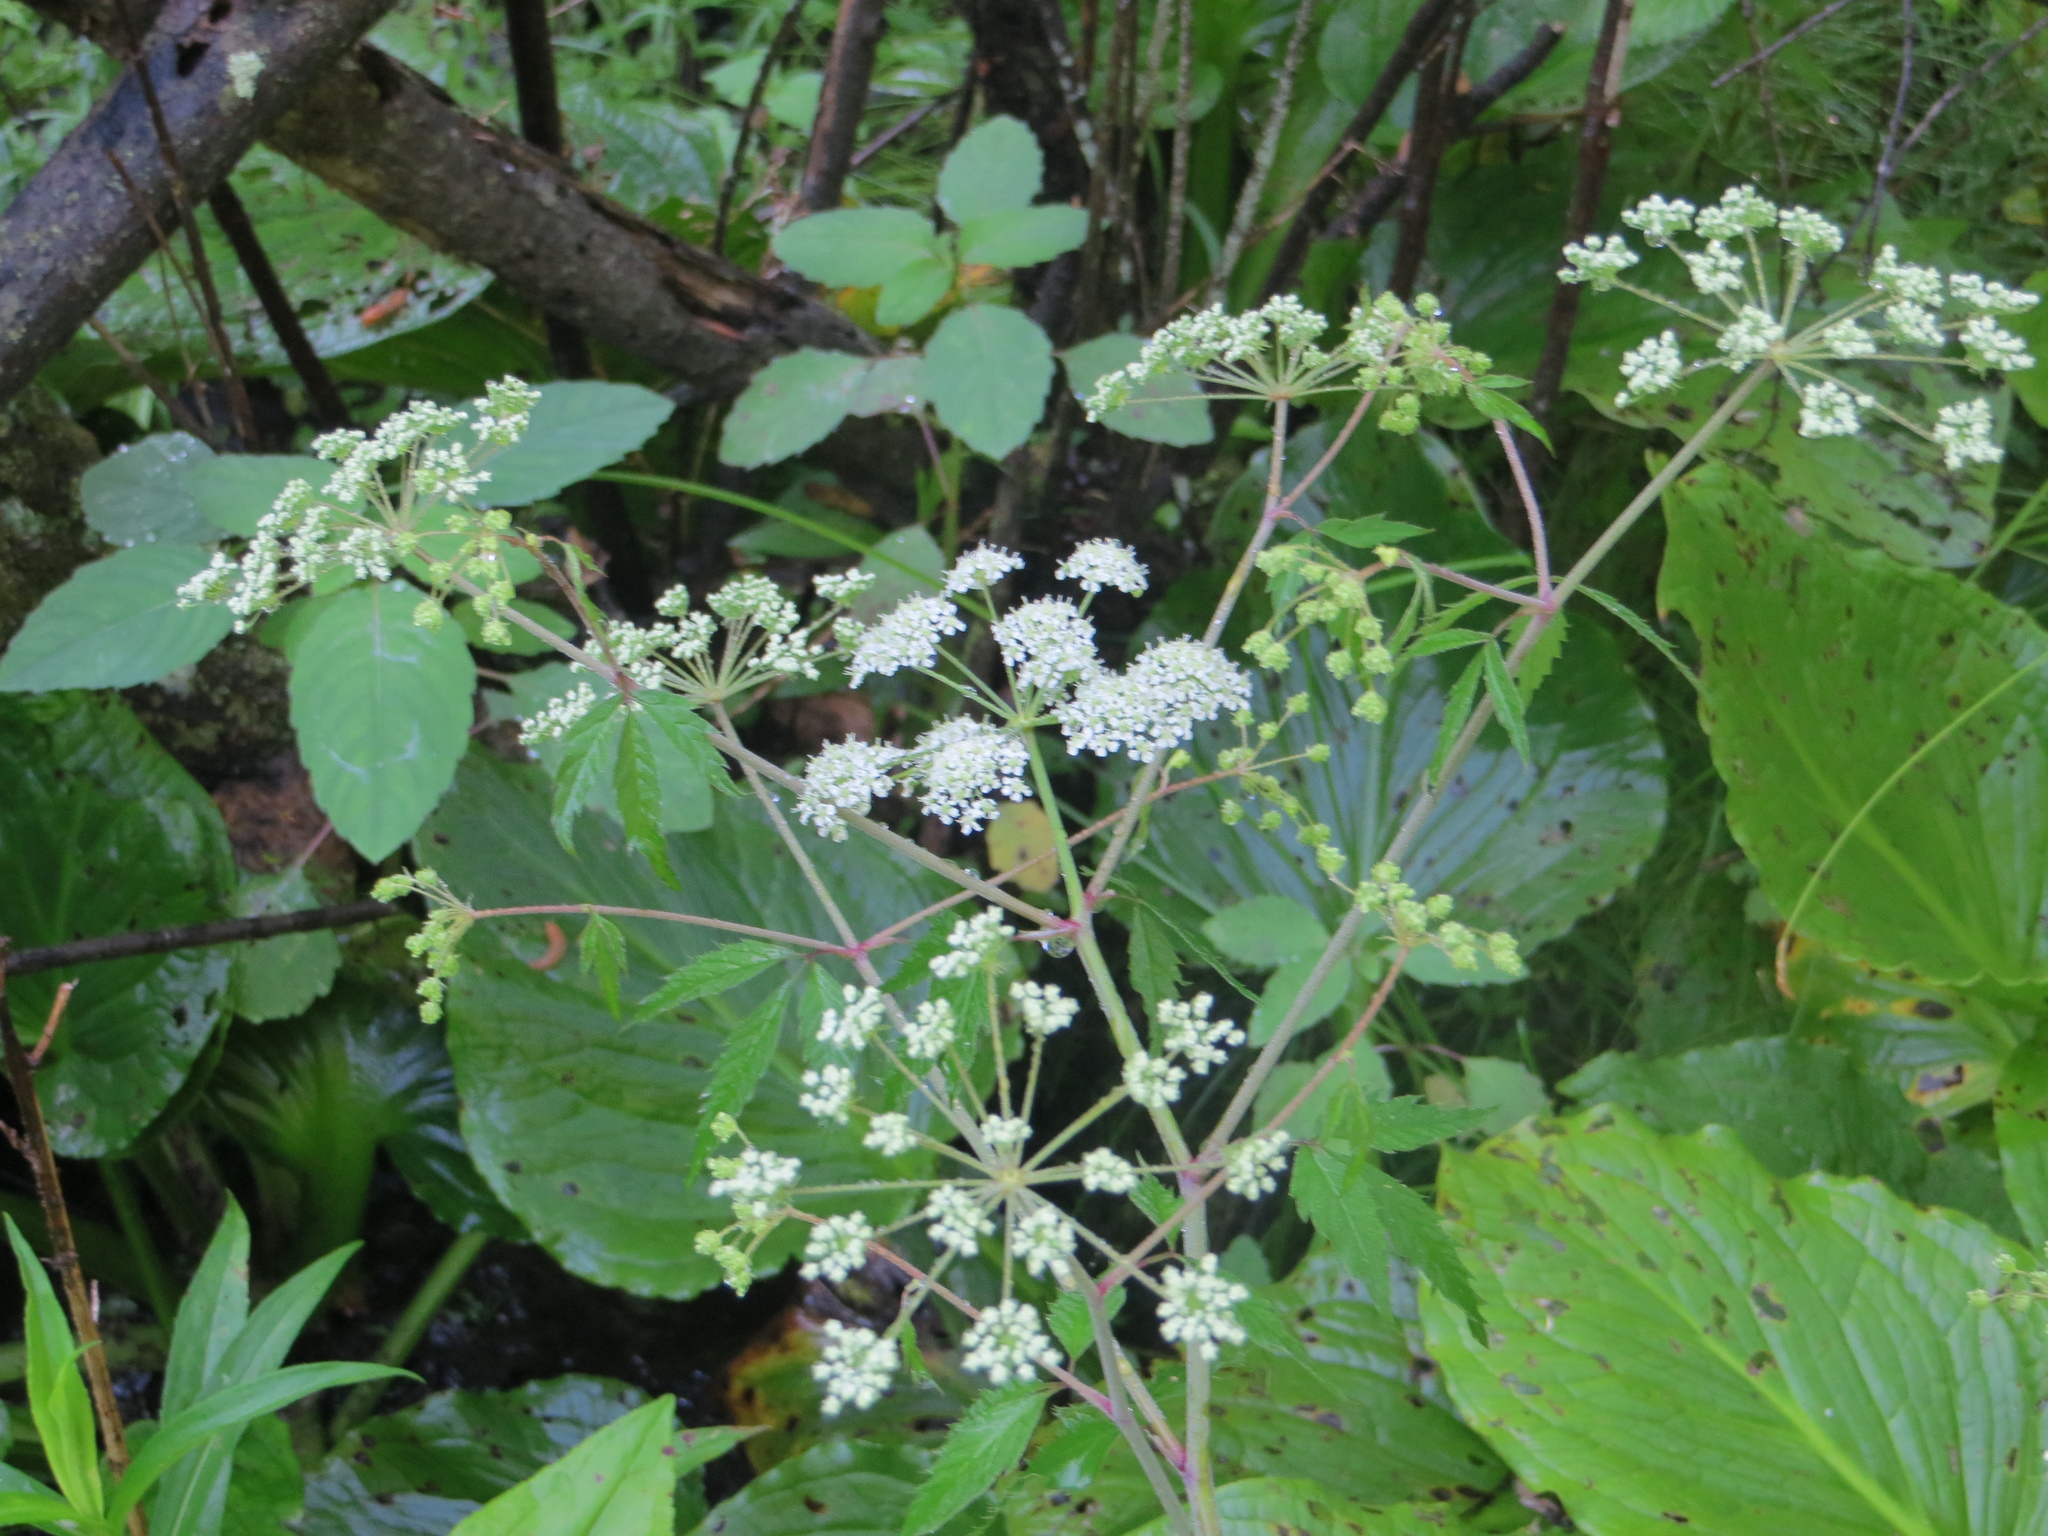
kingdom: Plantae
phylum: Tracheophyta
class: Magnoliopsida
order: Apiales
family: Apiaceae
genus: Cicuta
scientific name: Cicuta maculata
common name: Spotted cowbane
